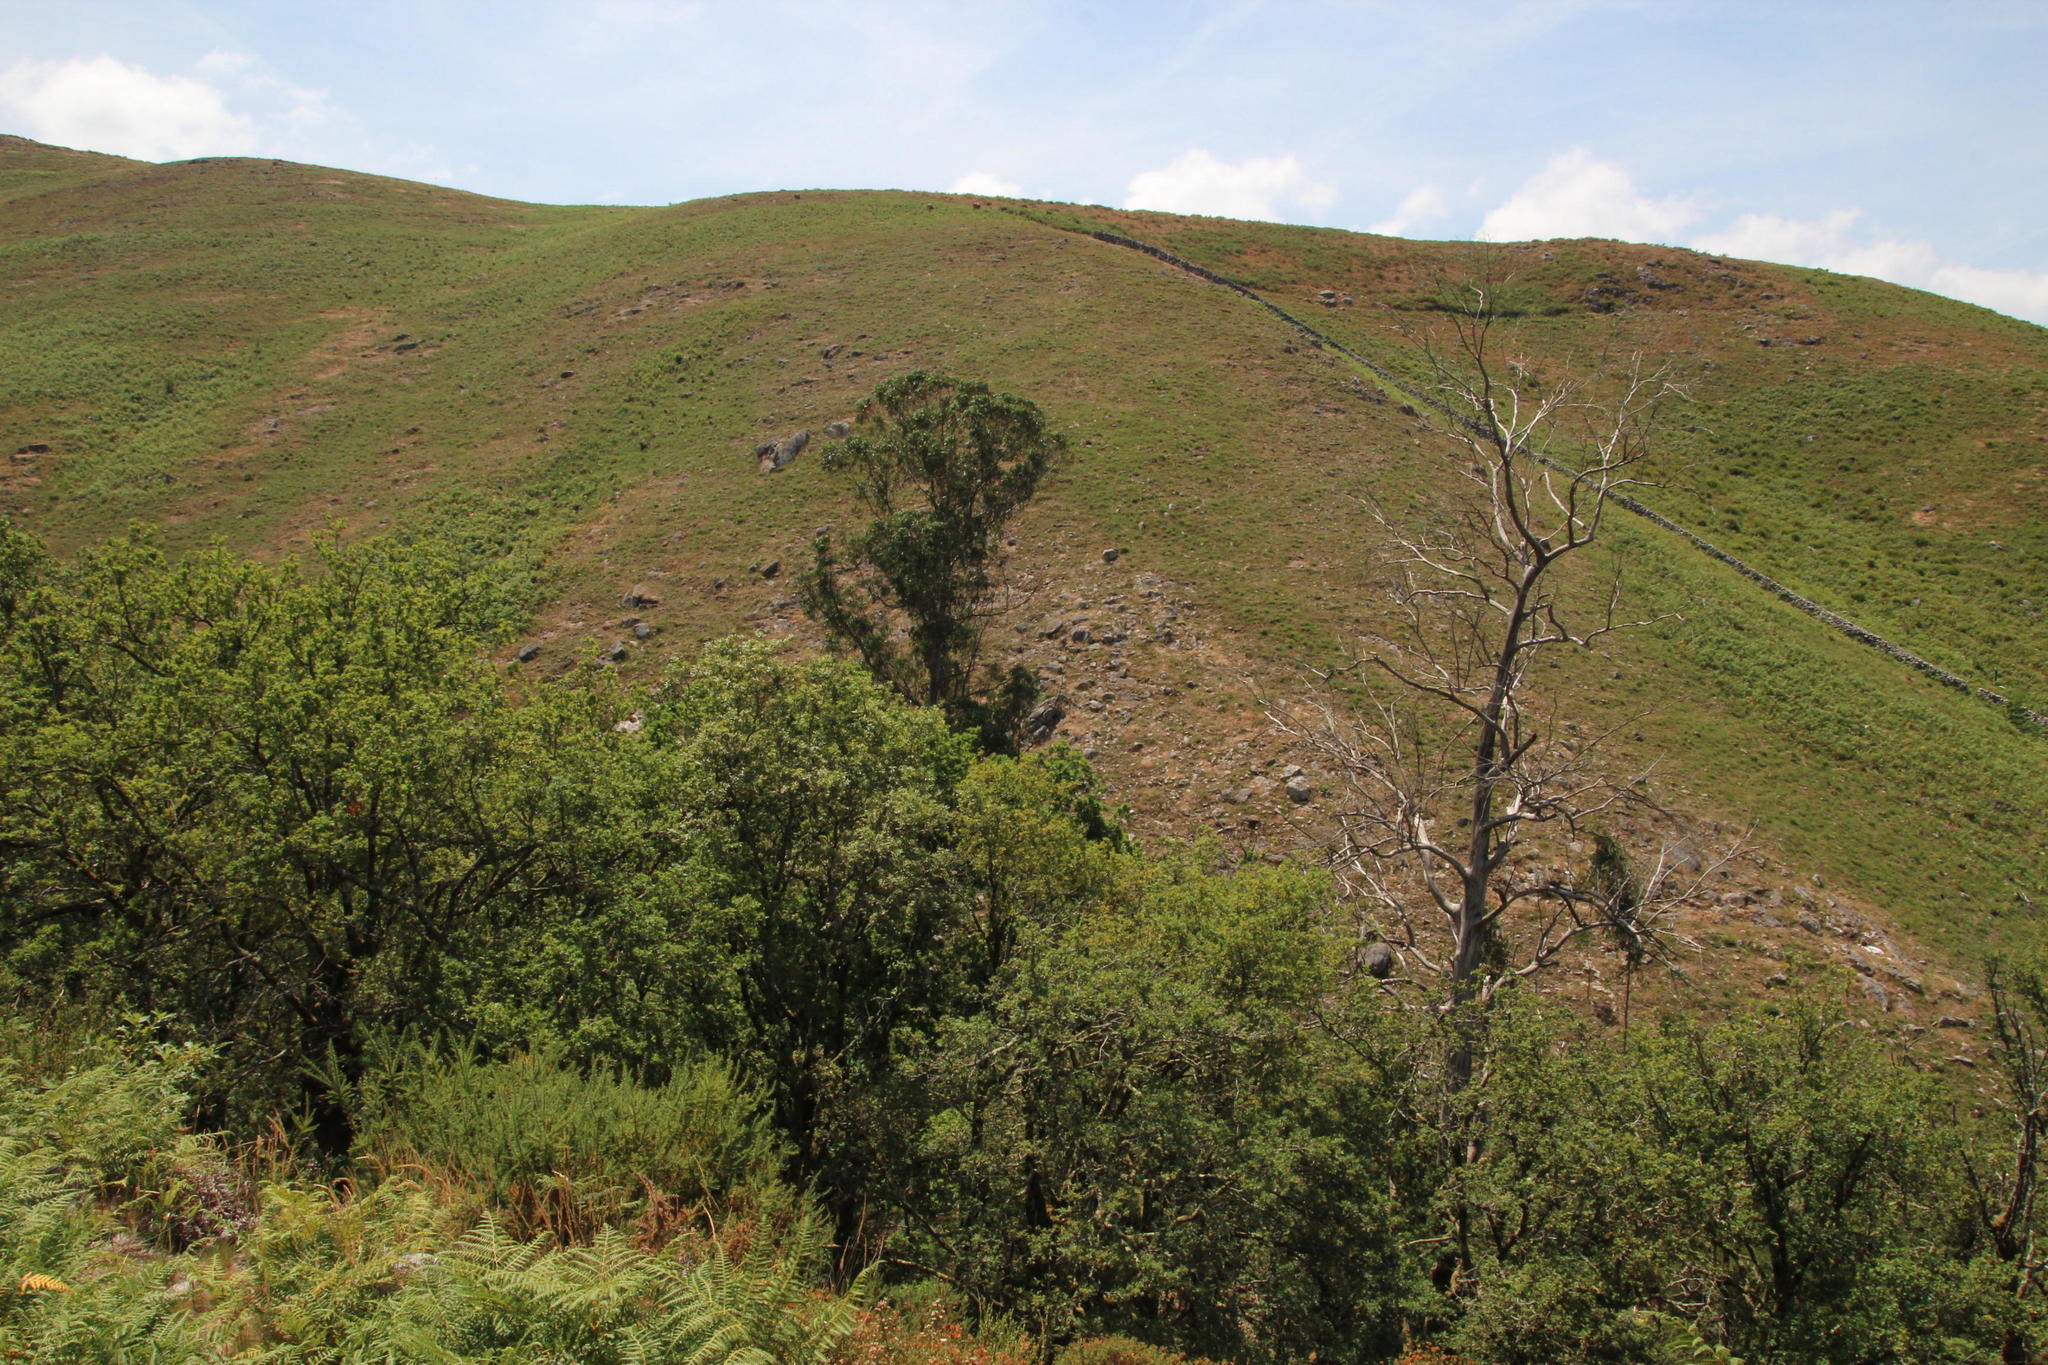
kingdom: Plantae
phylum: Tracheophyta
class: Magnoliopsida
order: Myrtales
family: Myrtaceae
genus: Eucalyptus
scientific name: Eucalyptus globulus
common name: Southern blue-gum
